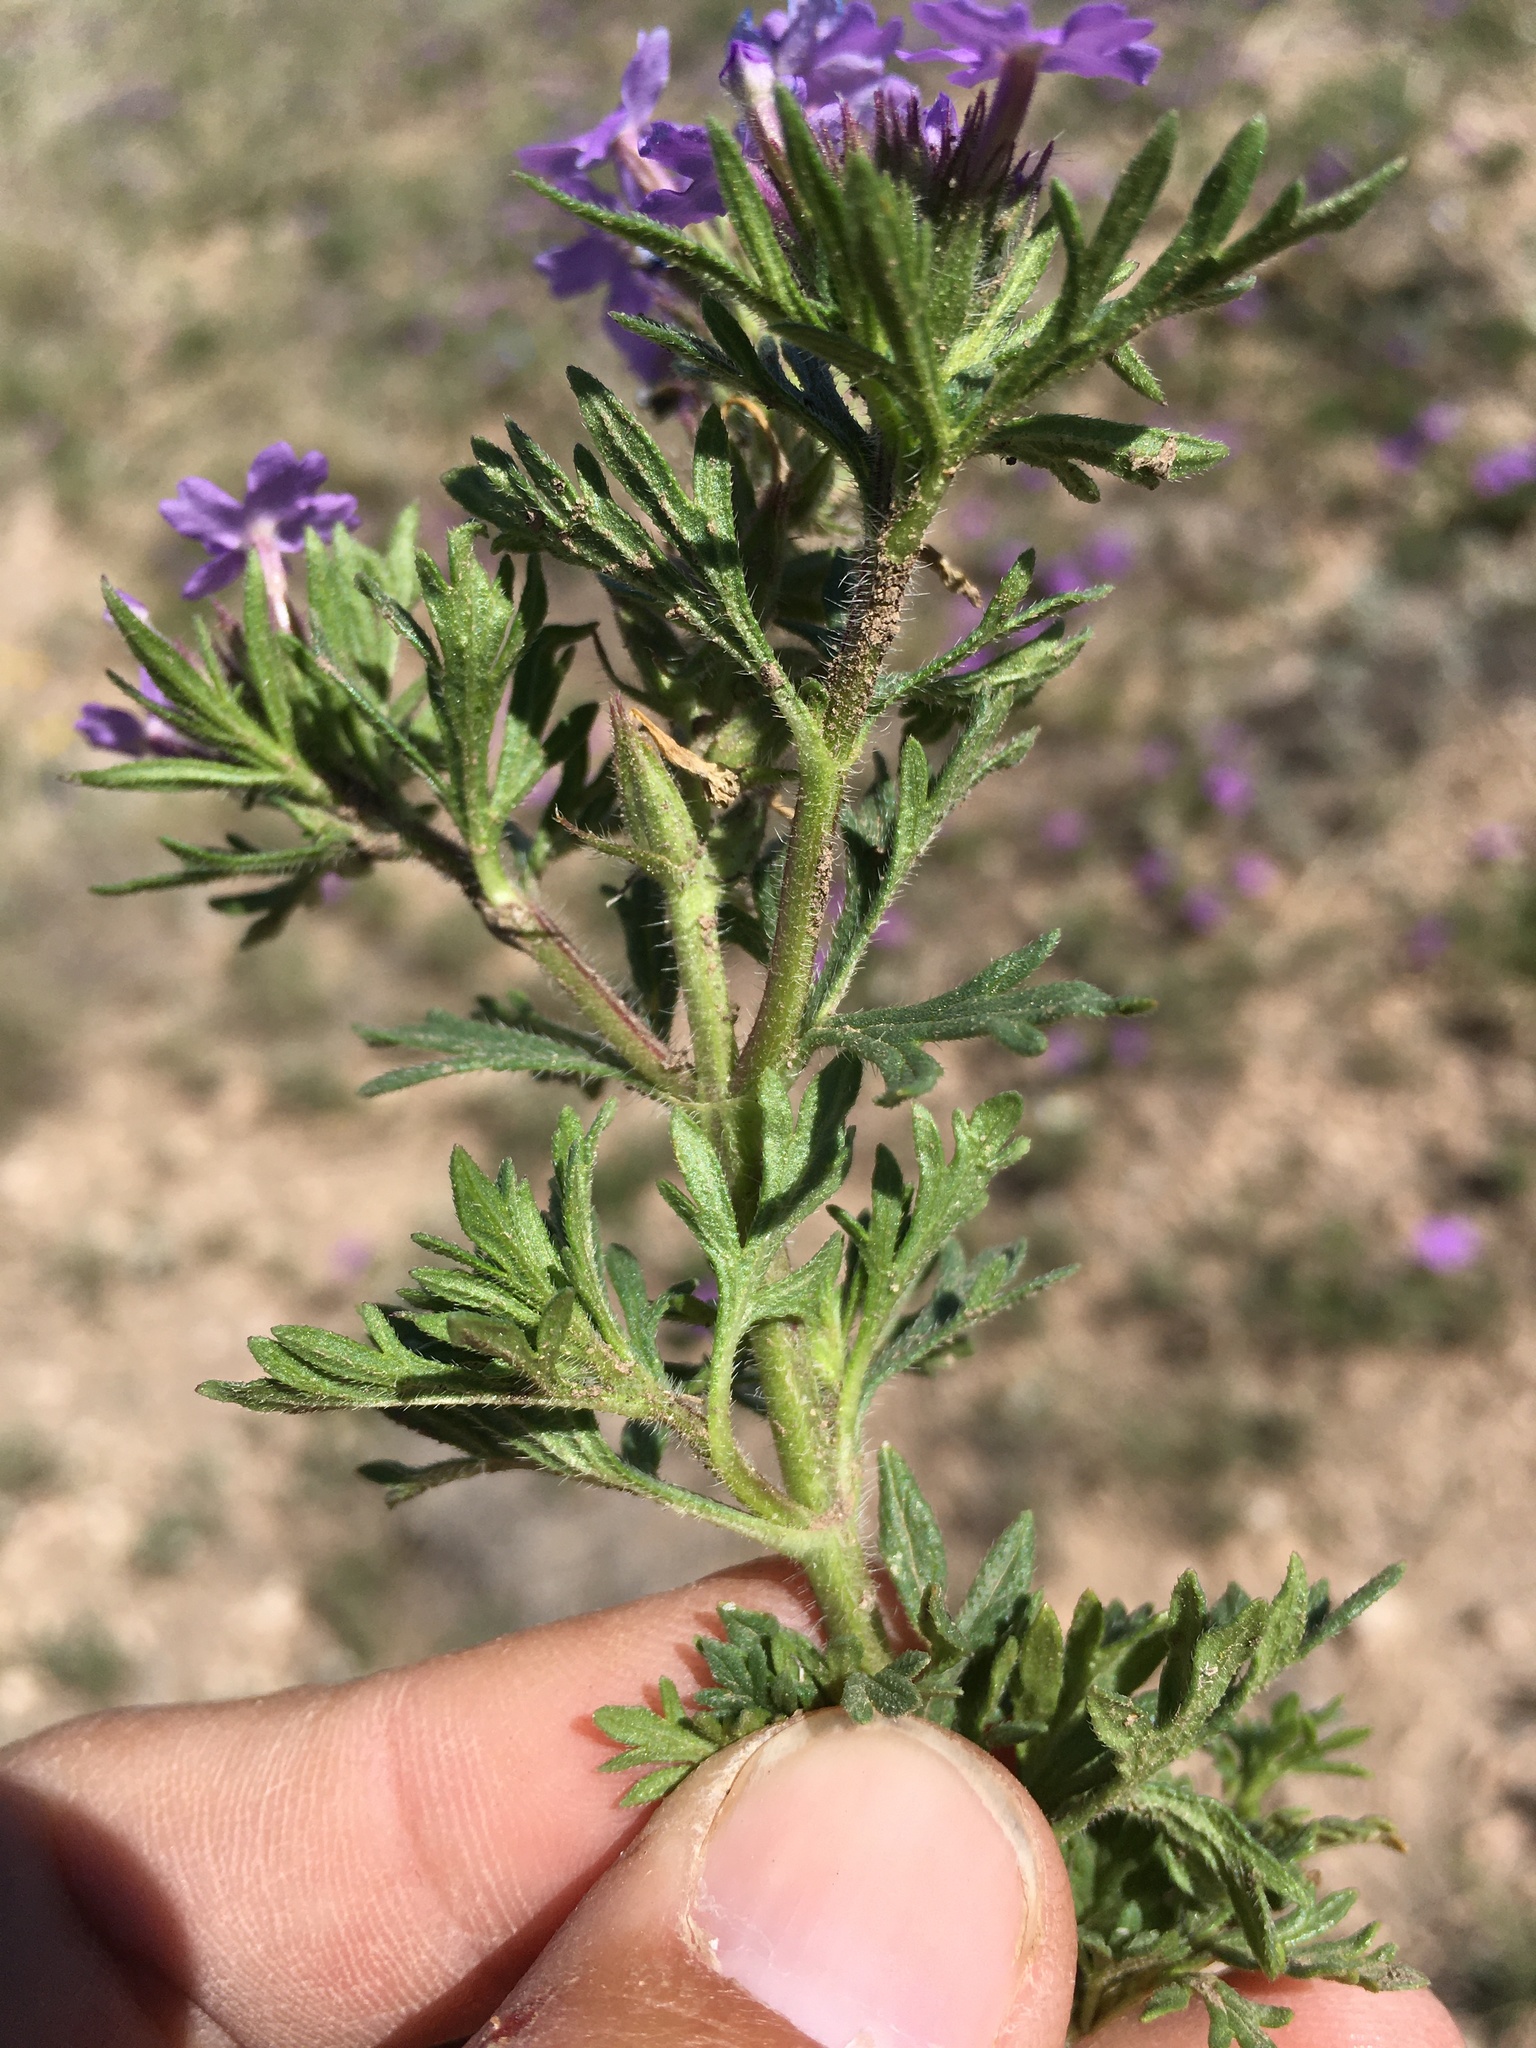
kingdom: Plantae
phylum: Tracheophyta
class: Magnoliopsida
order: Lamiales
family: Verbenaceae
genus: Verbena
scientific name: Verbena bipinnatifida
